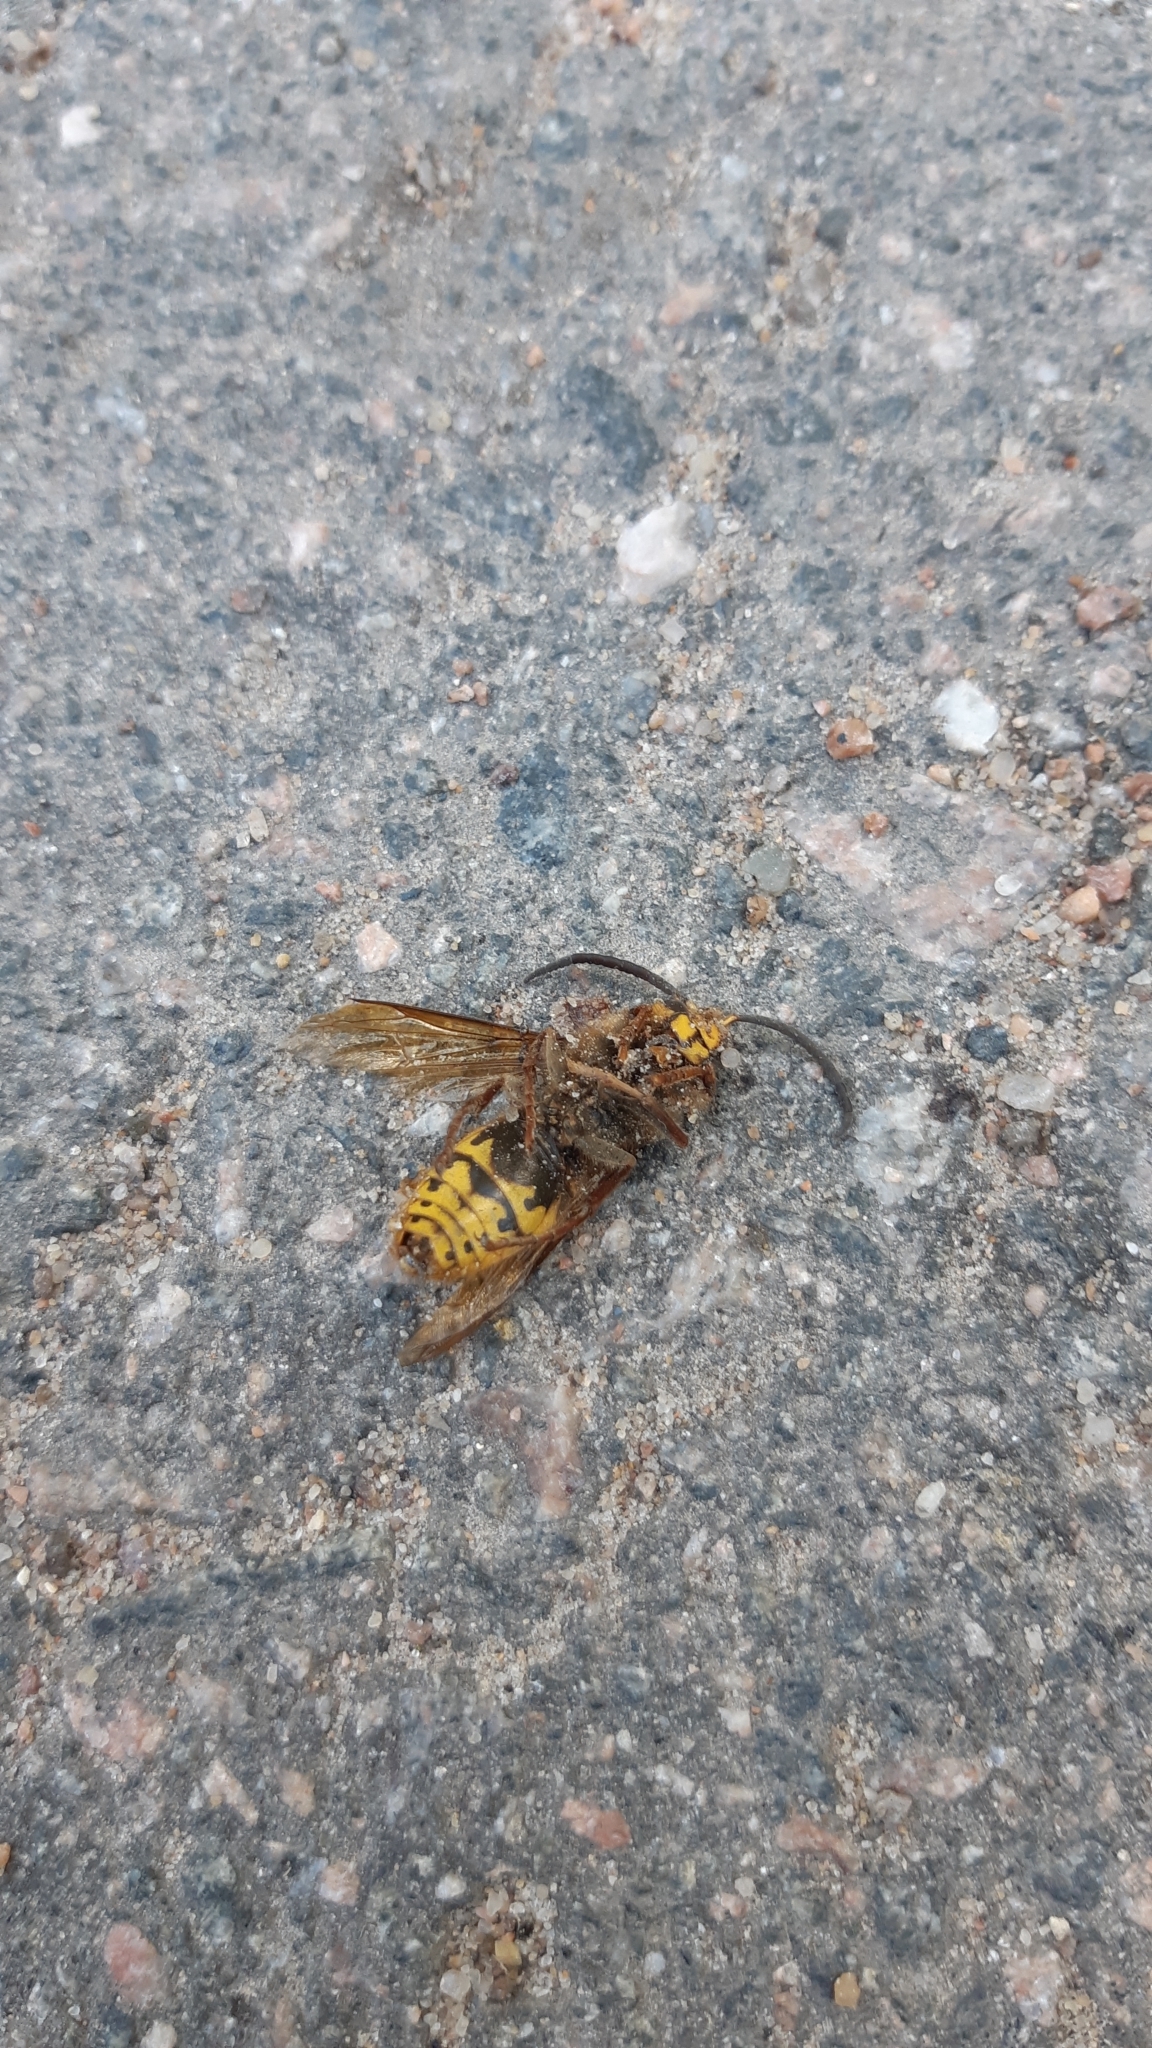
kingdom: Animalia
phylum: Arthropoda
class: Insecta
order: Hymenoptera
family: Vespidae
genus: Vespa
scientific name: Vespa crabro
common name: Hornet
